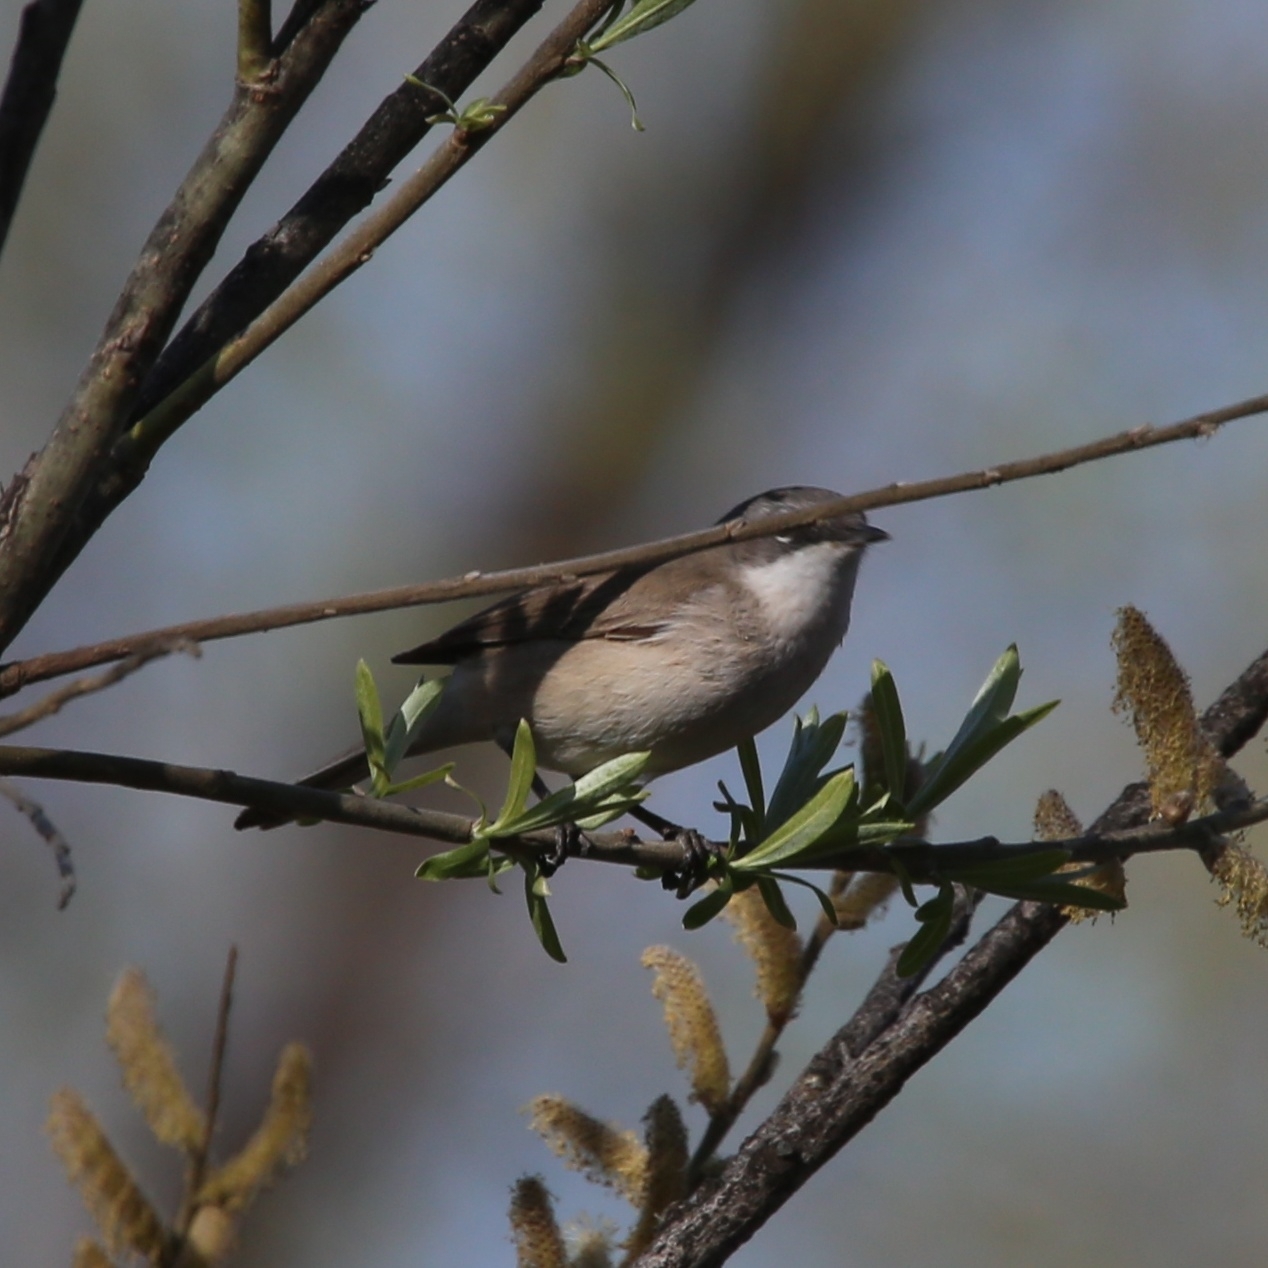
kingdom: Animalia
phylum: Chordata
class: Aves
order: Passeriformes
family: Sylviidae
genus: Sylvia
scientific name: Sylvia curruca
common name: Lesser whitethroat
